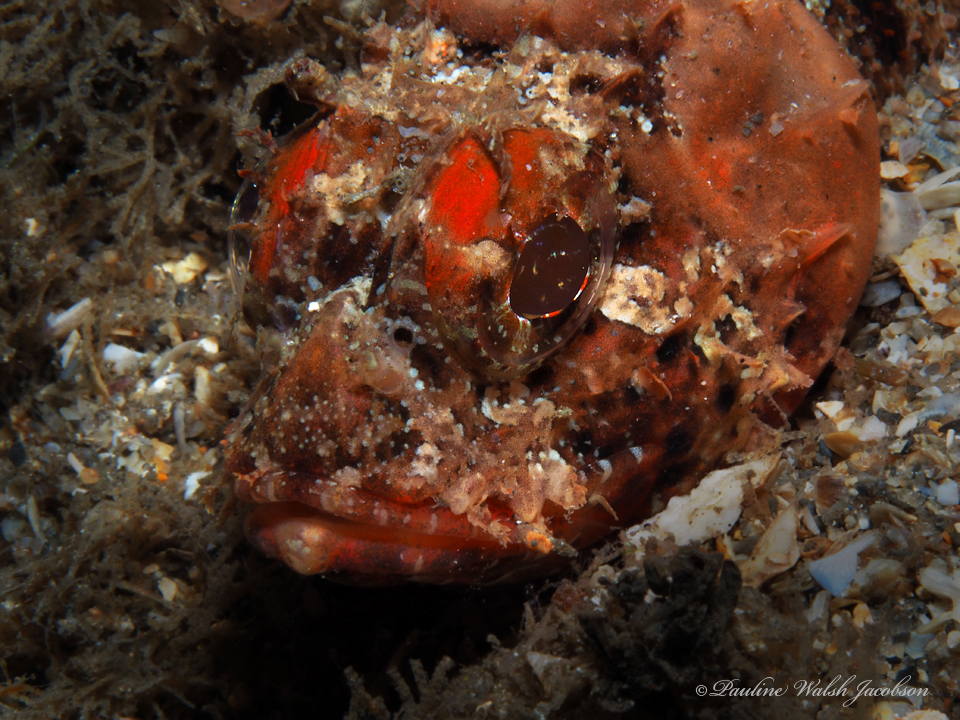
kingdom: Animalia
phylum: Chordata
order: Scorpaeniformes
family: Scorpaenidae
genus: Scorpaena
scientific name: Scorpaena brasiliensis
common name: Barbfish
